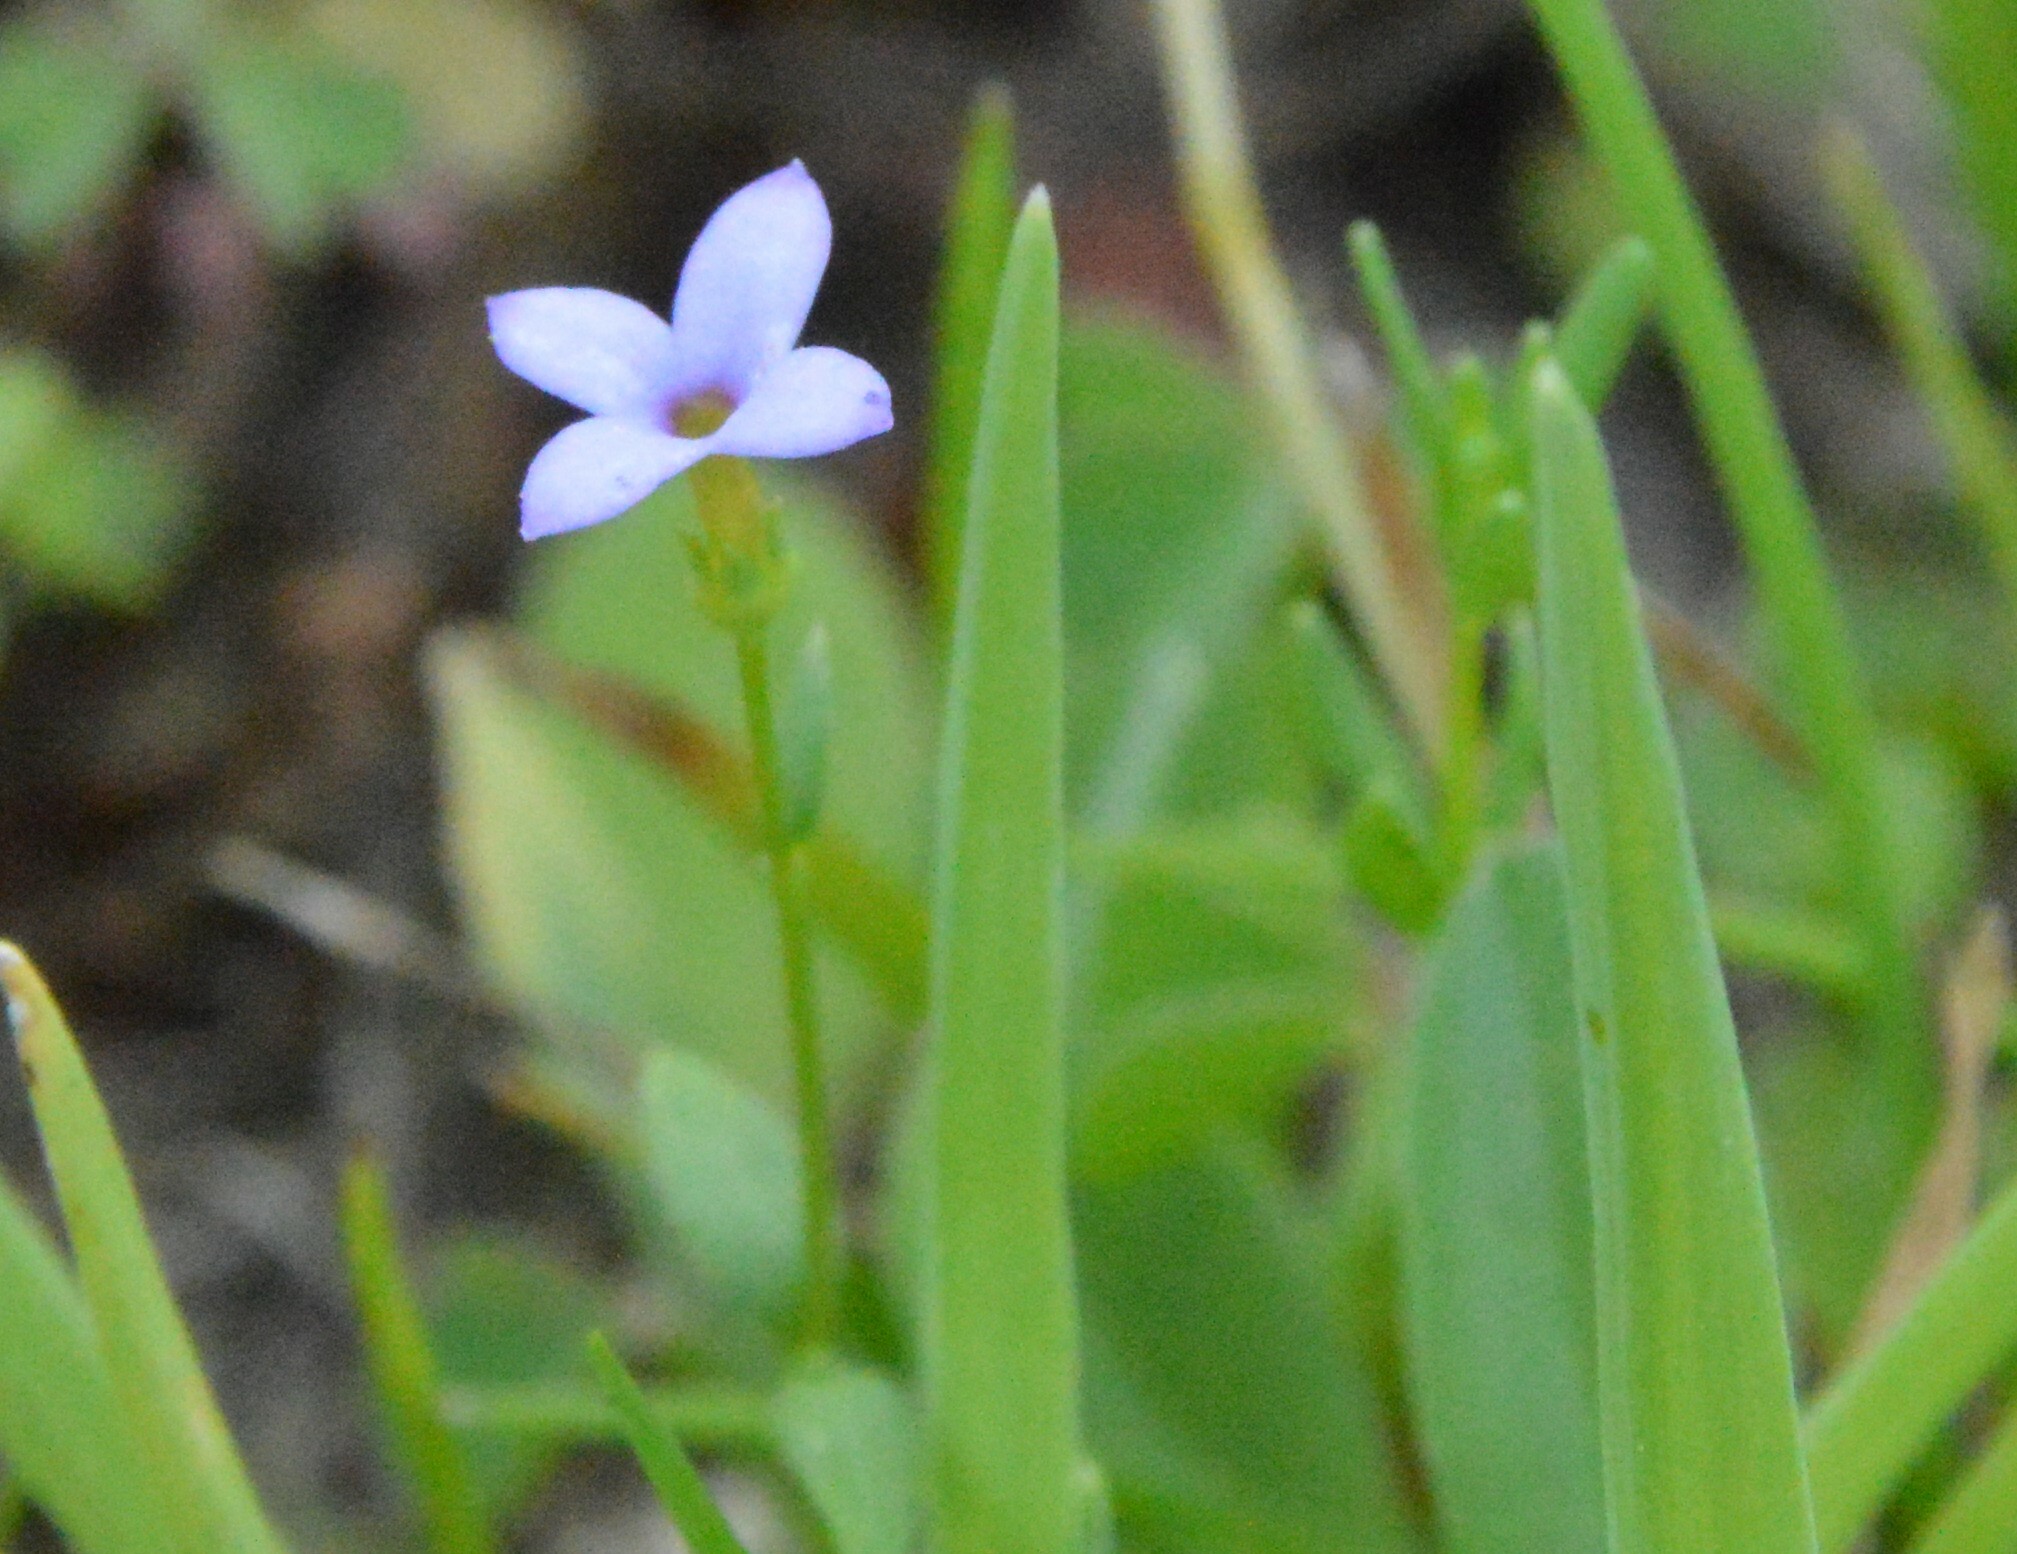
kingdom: Plantae
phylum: Tracheophyta
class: Magnoliopsida
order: Gentianales
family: Rubiaceae
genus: Houstonia
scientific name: Houstonia pusilla
